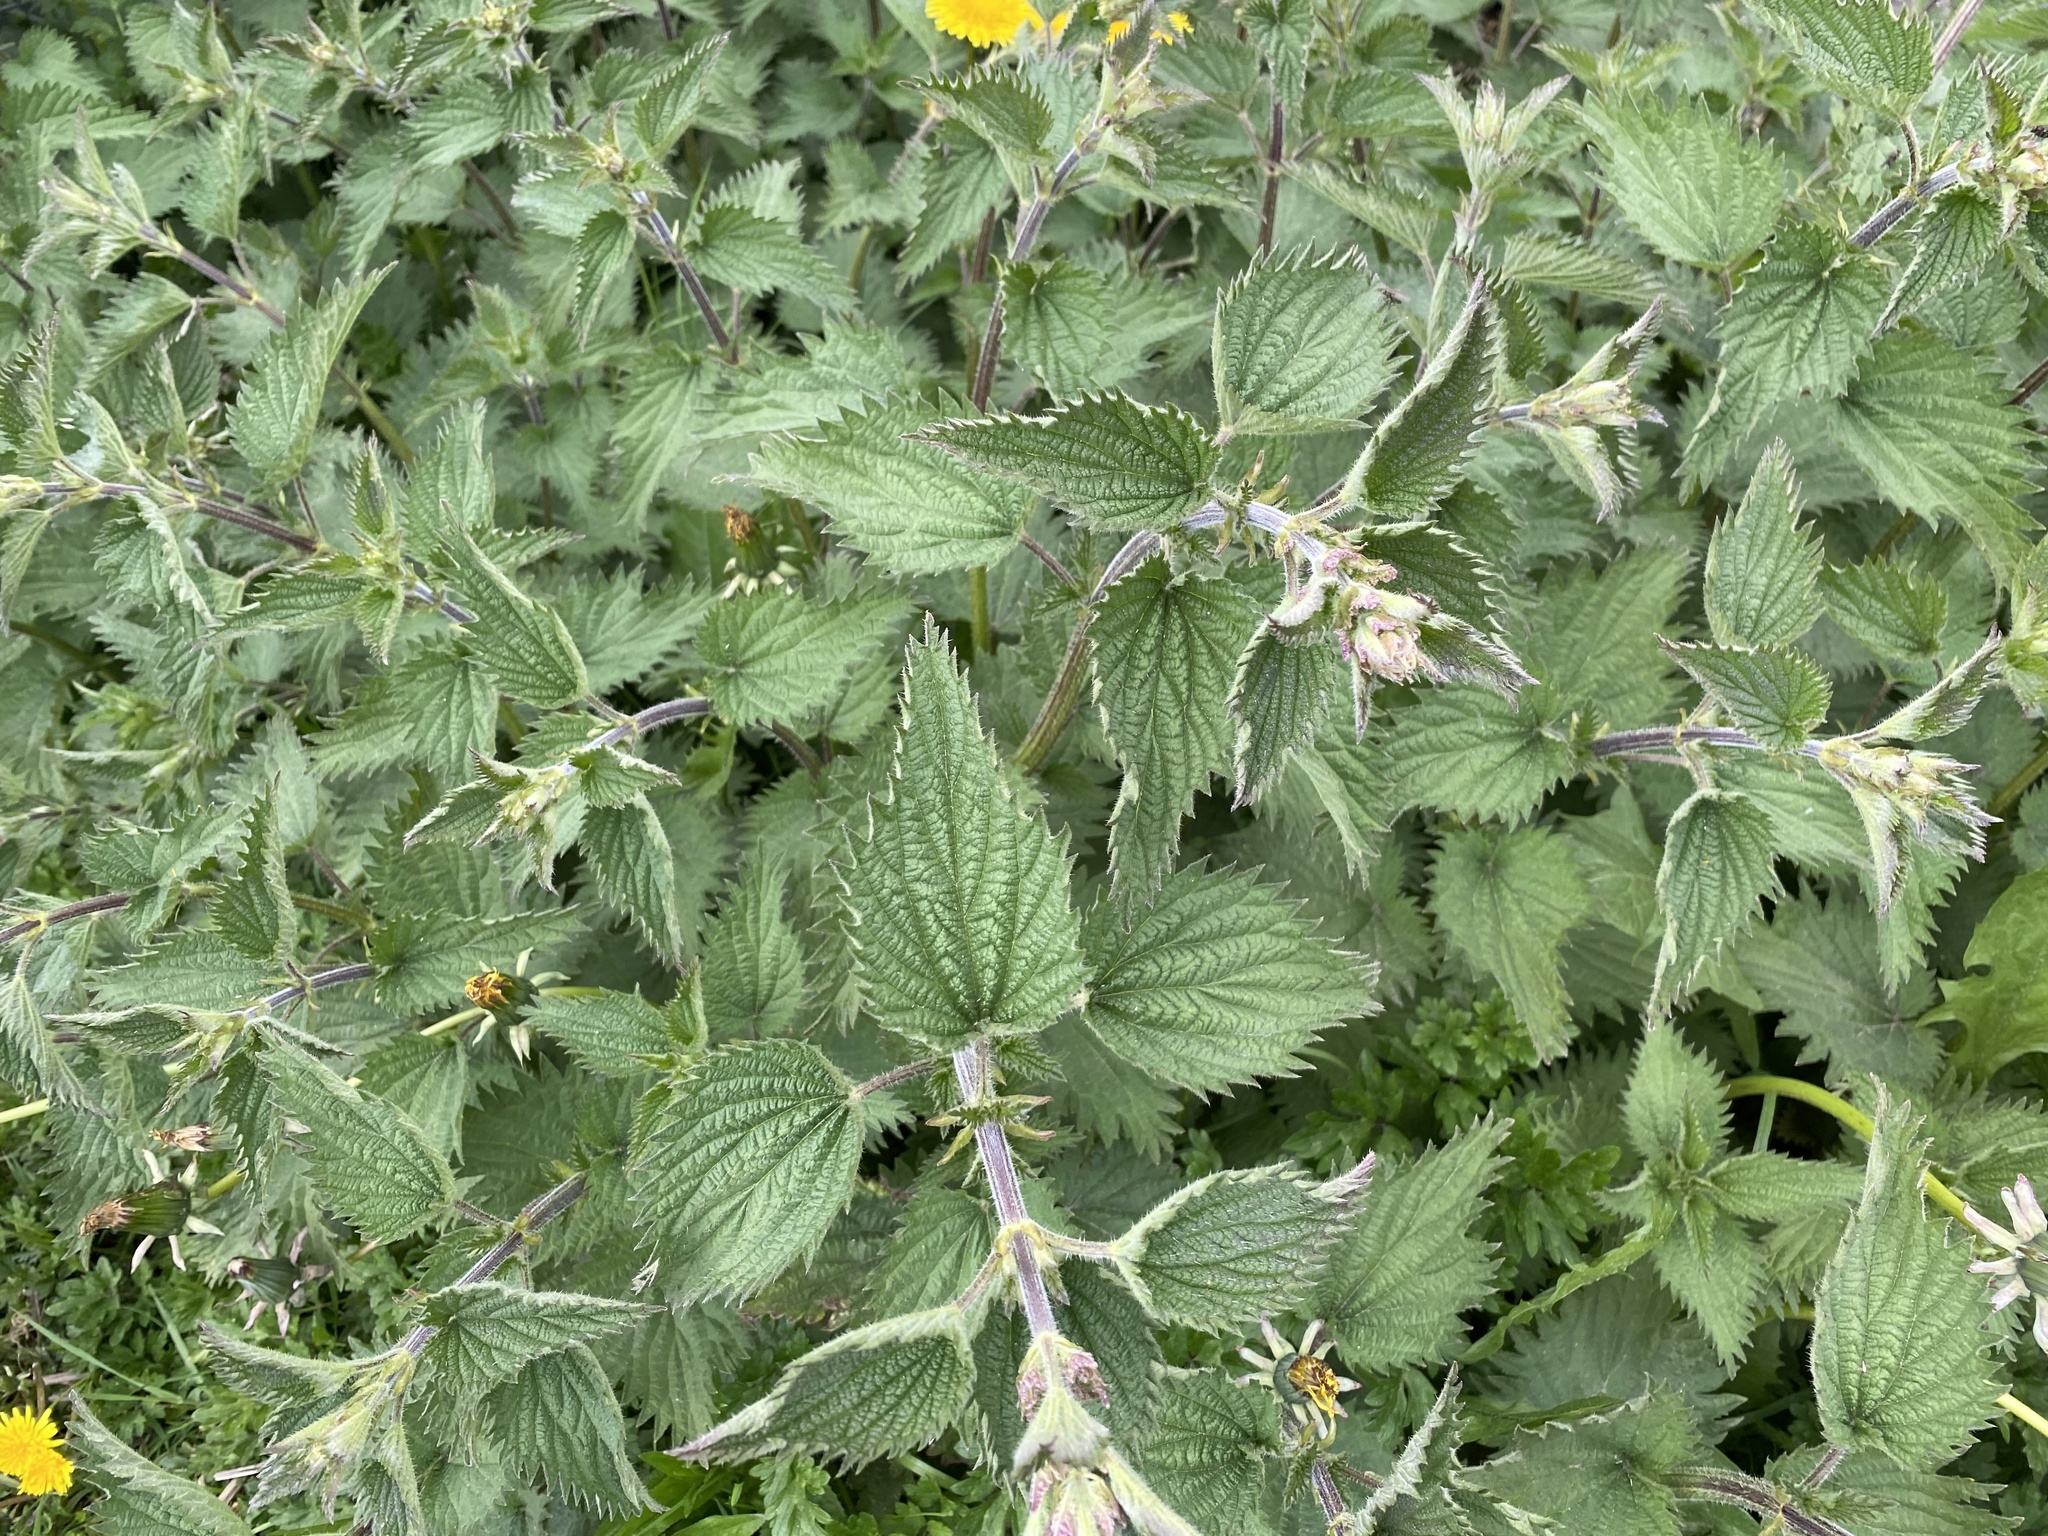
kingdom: Plantae
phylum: Tracheophyta
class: Magnoliopsida
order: Rosales
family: Urticaceae
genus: Urtica
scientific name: Urtica dioica
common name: Common nettle
